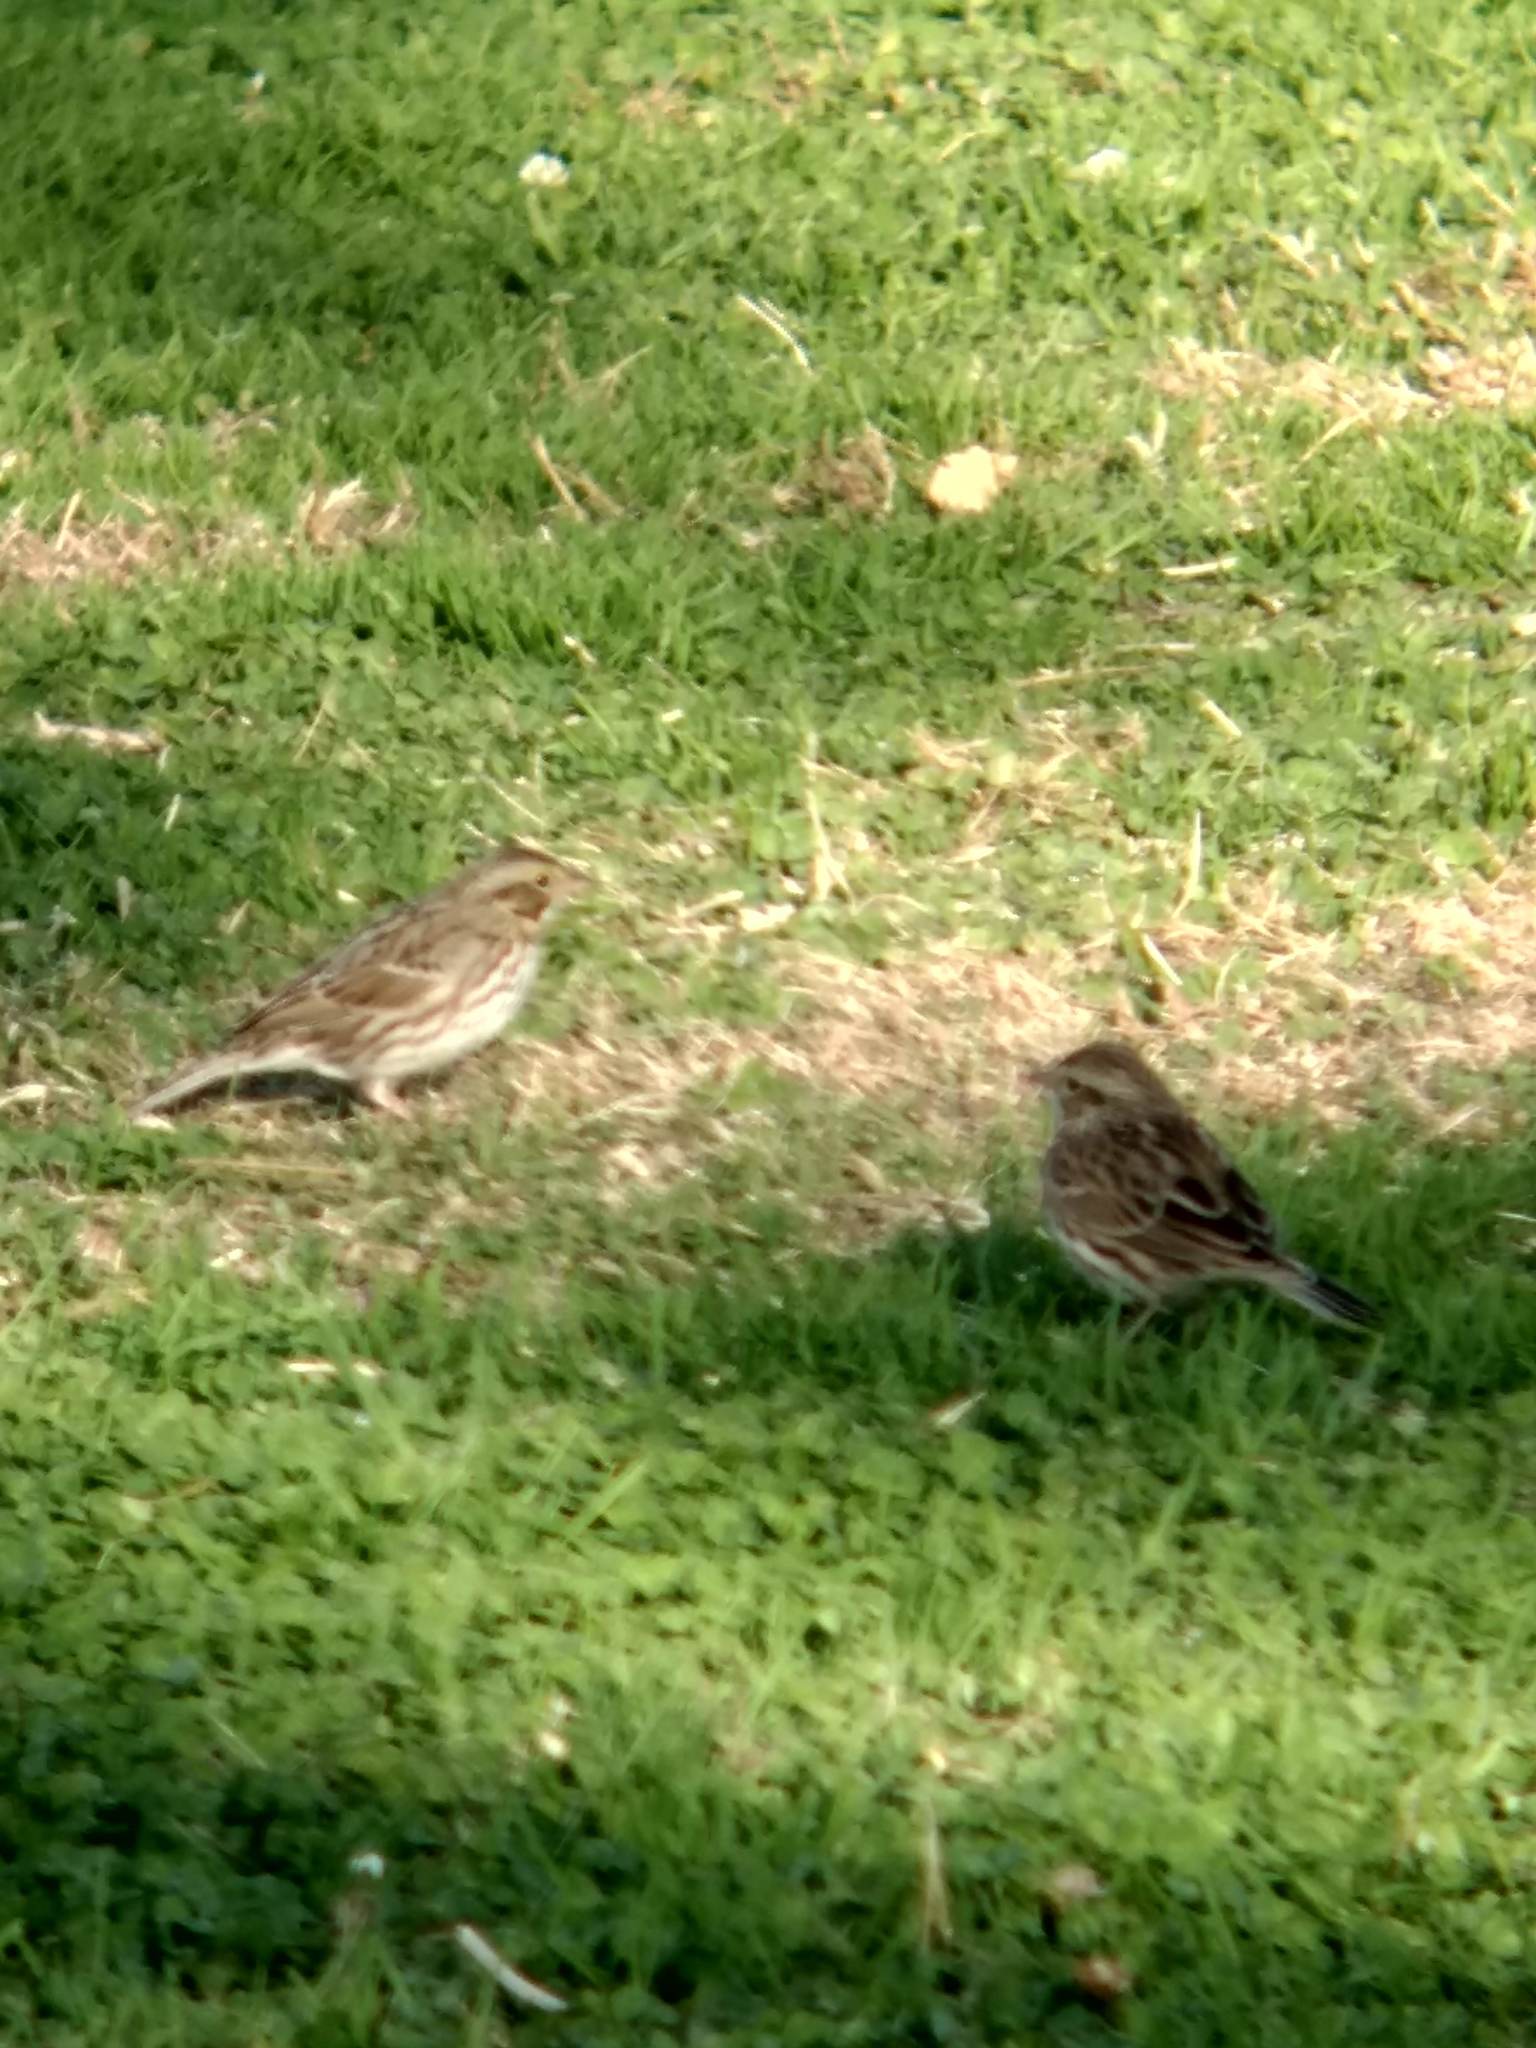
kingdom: Animalia
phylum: Chordata
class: Aves
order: Passeriformes
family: Passerellidae
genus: Passerculus
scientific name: Passerculus sandwichensis
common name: Savannah sparrow
